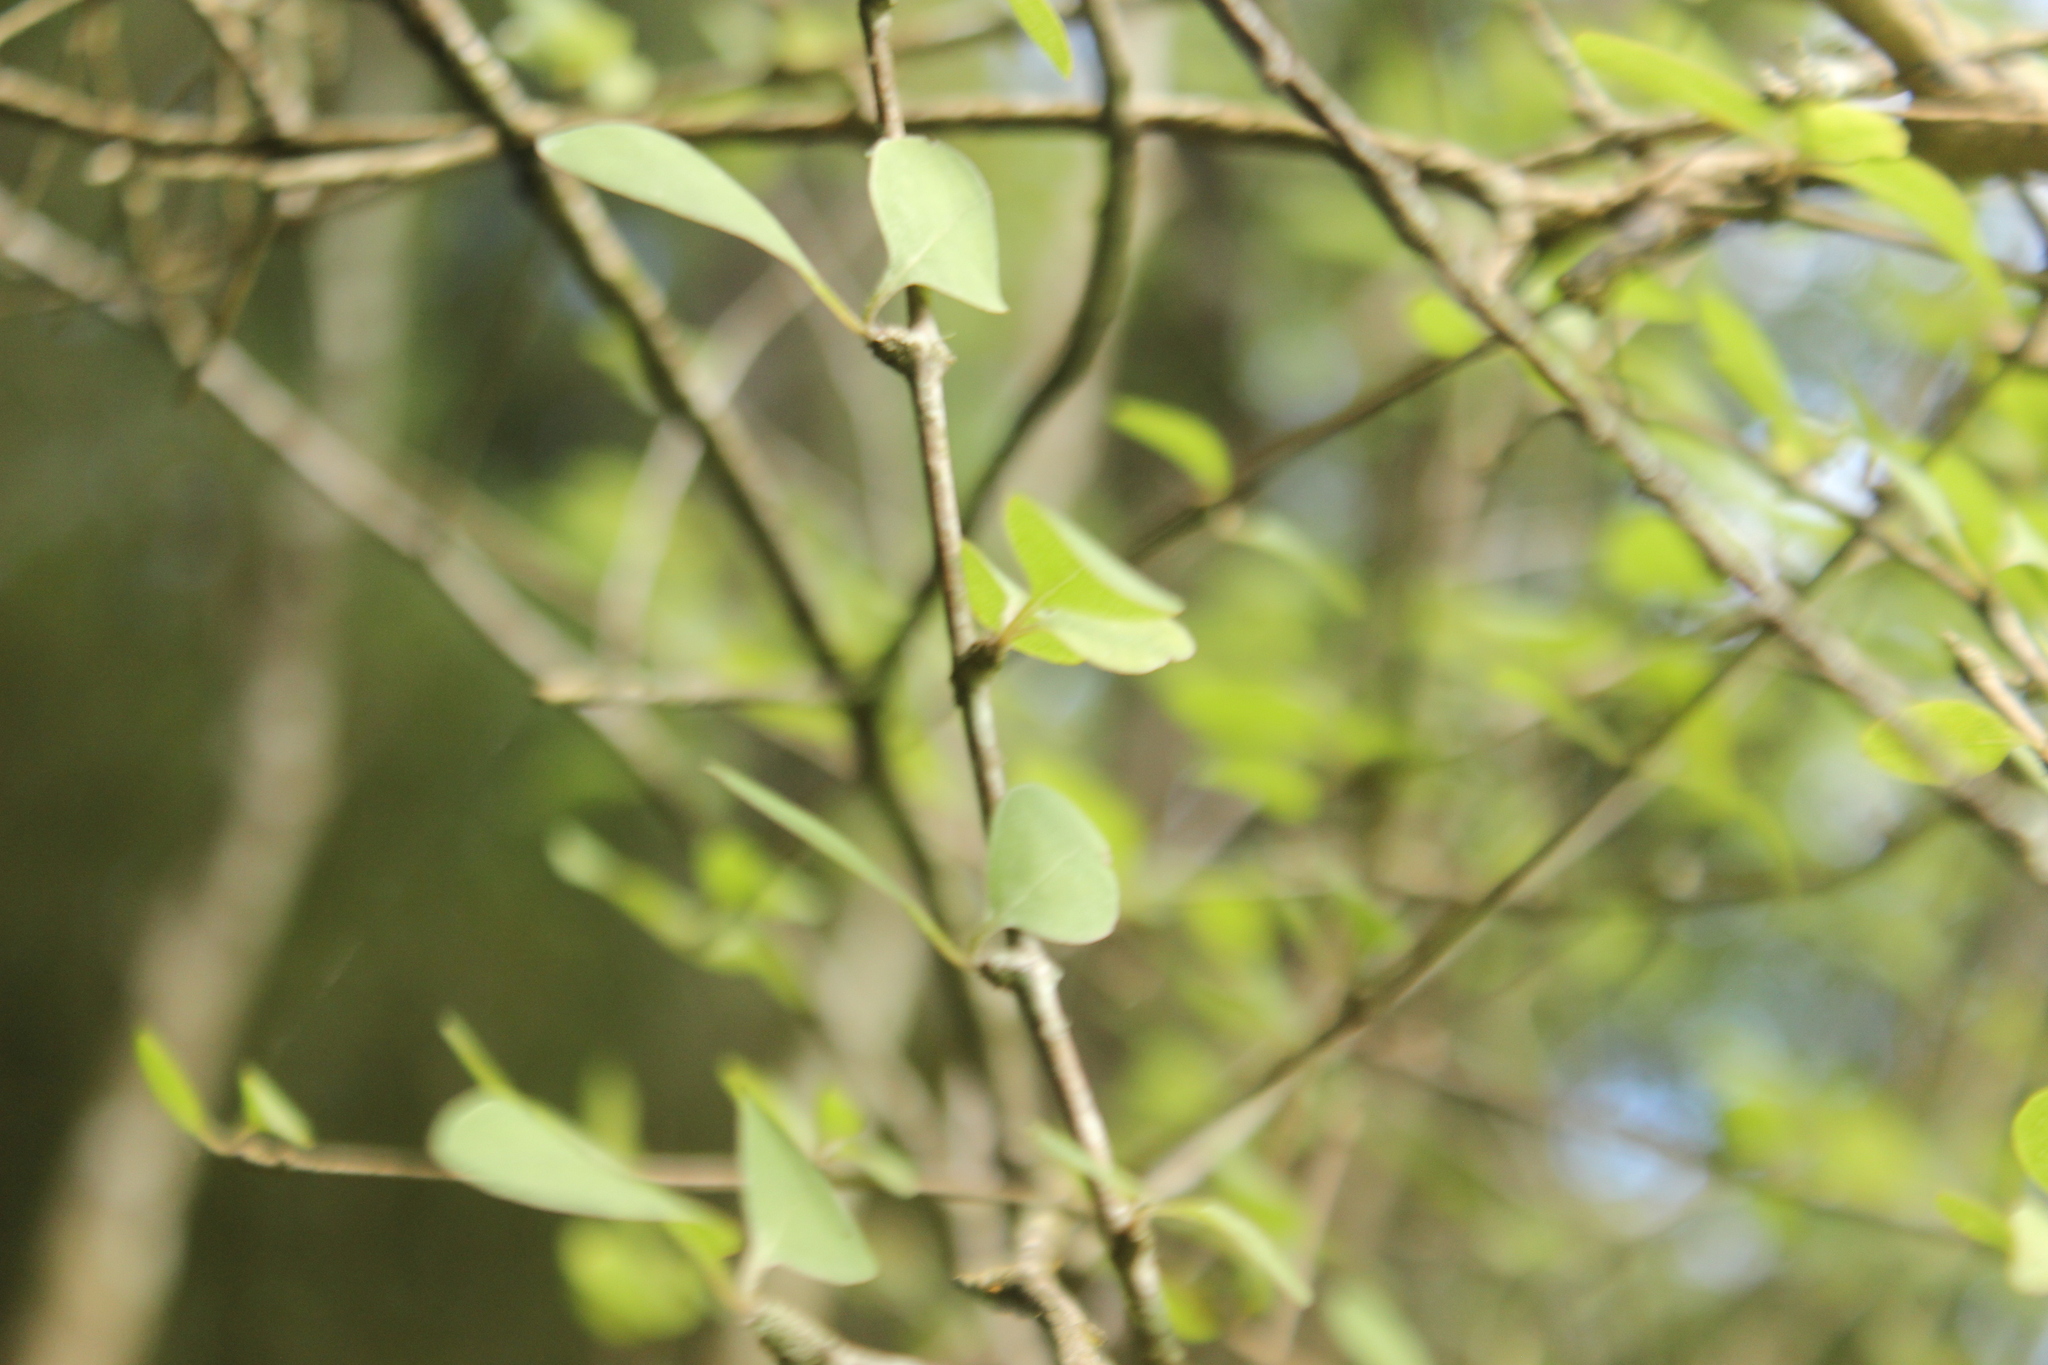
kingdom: Plantae
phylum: Tracheophyta
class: Magnoliopsida
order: Asterales
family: Asteraceae
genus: Olearia
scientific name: Olearia gardneri
